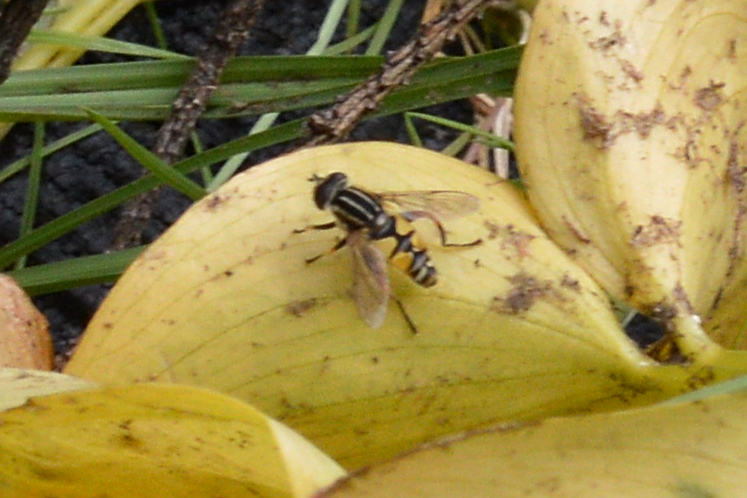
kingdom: Animalia
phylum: Arthropoda
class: Insecta
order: Diptera
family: Syrphidae
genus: Helophilus
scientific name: Helophilus pendulus
